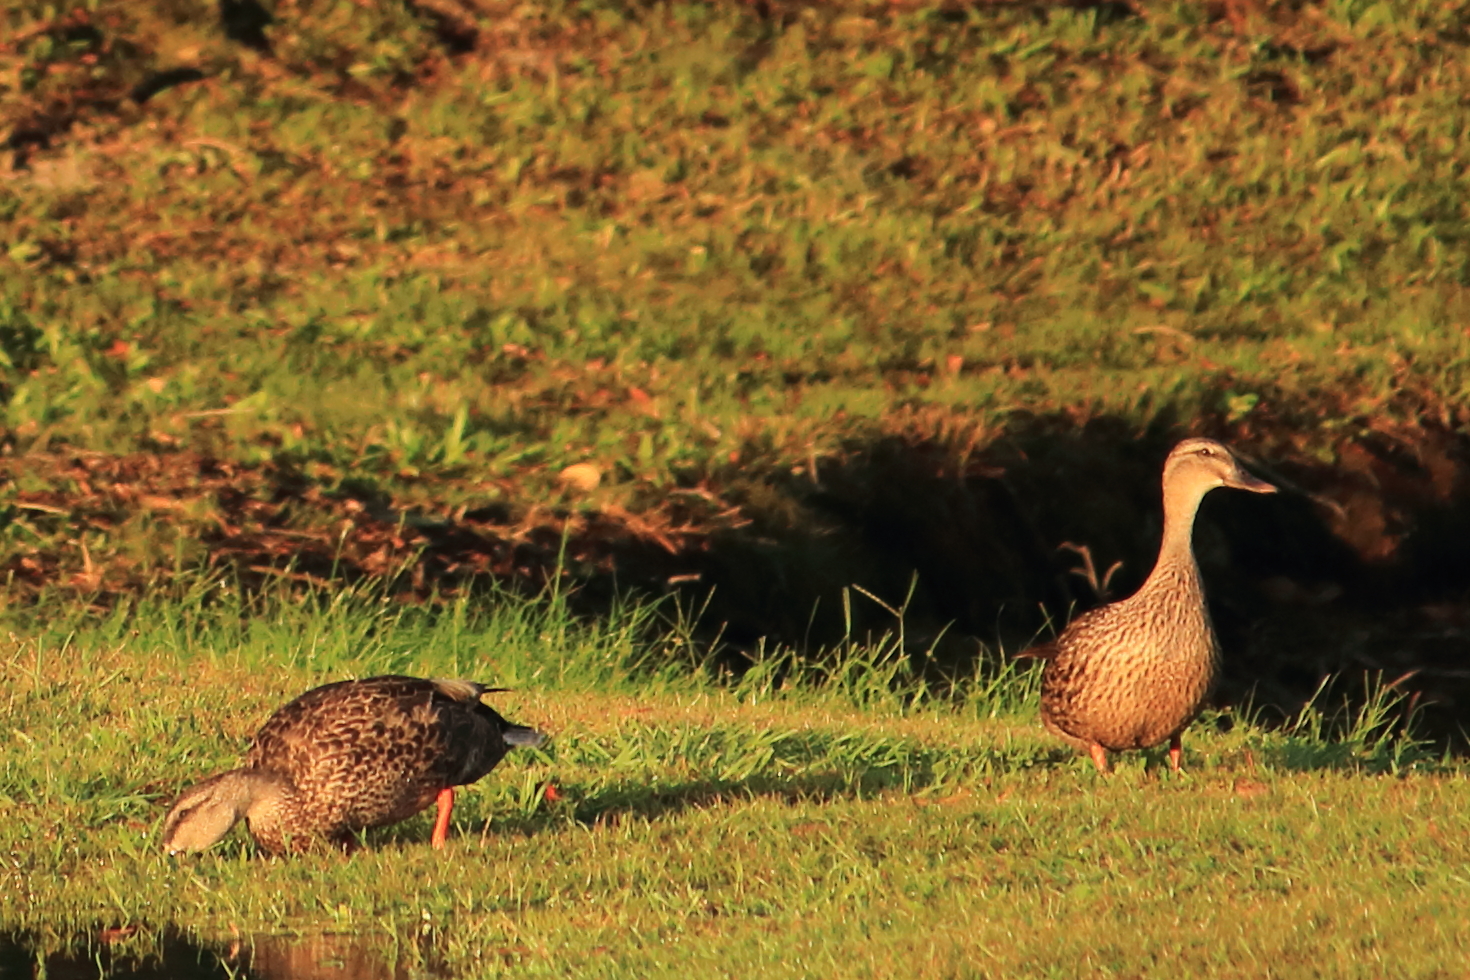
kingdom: Animalia
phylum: Chordata
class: Aves
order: Anseriformes
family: Anatidae
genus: Anas
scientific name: Anas platyrhynchos
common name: Mallard
